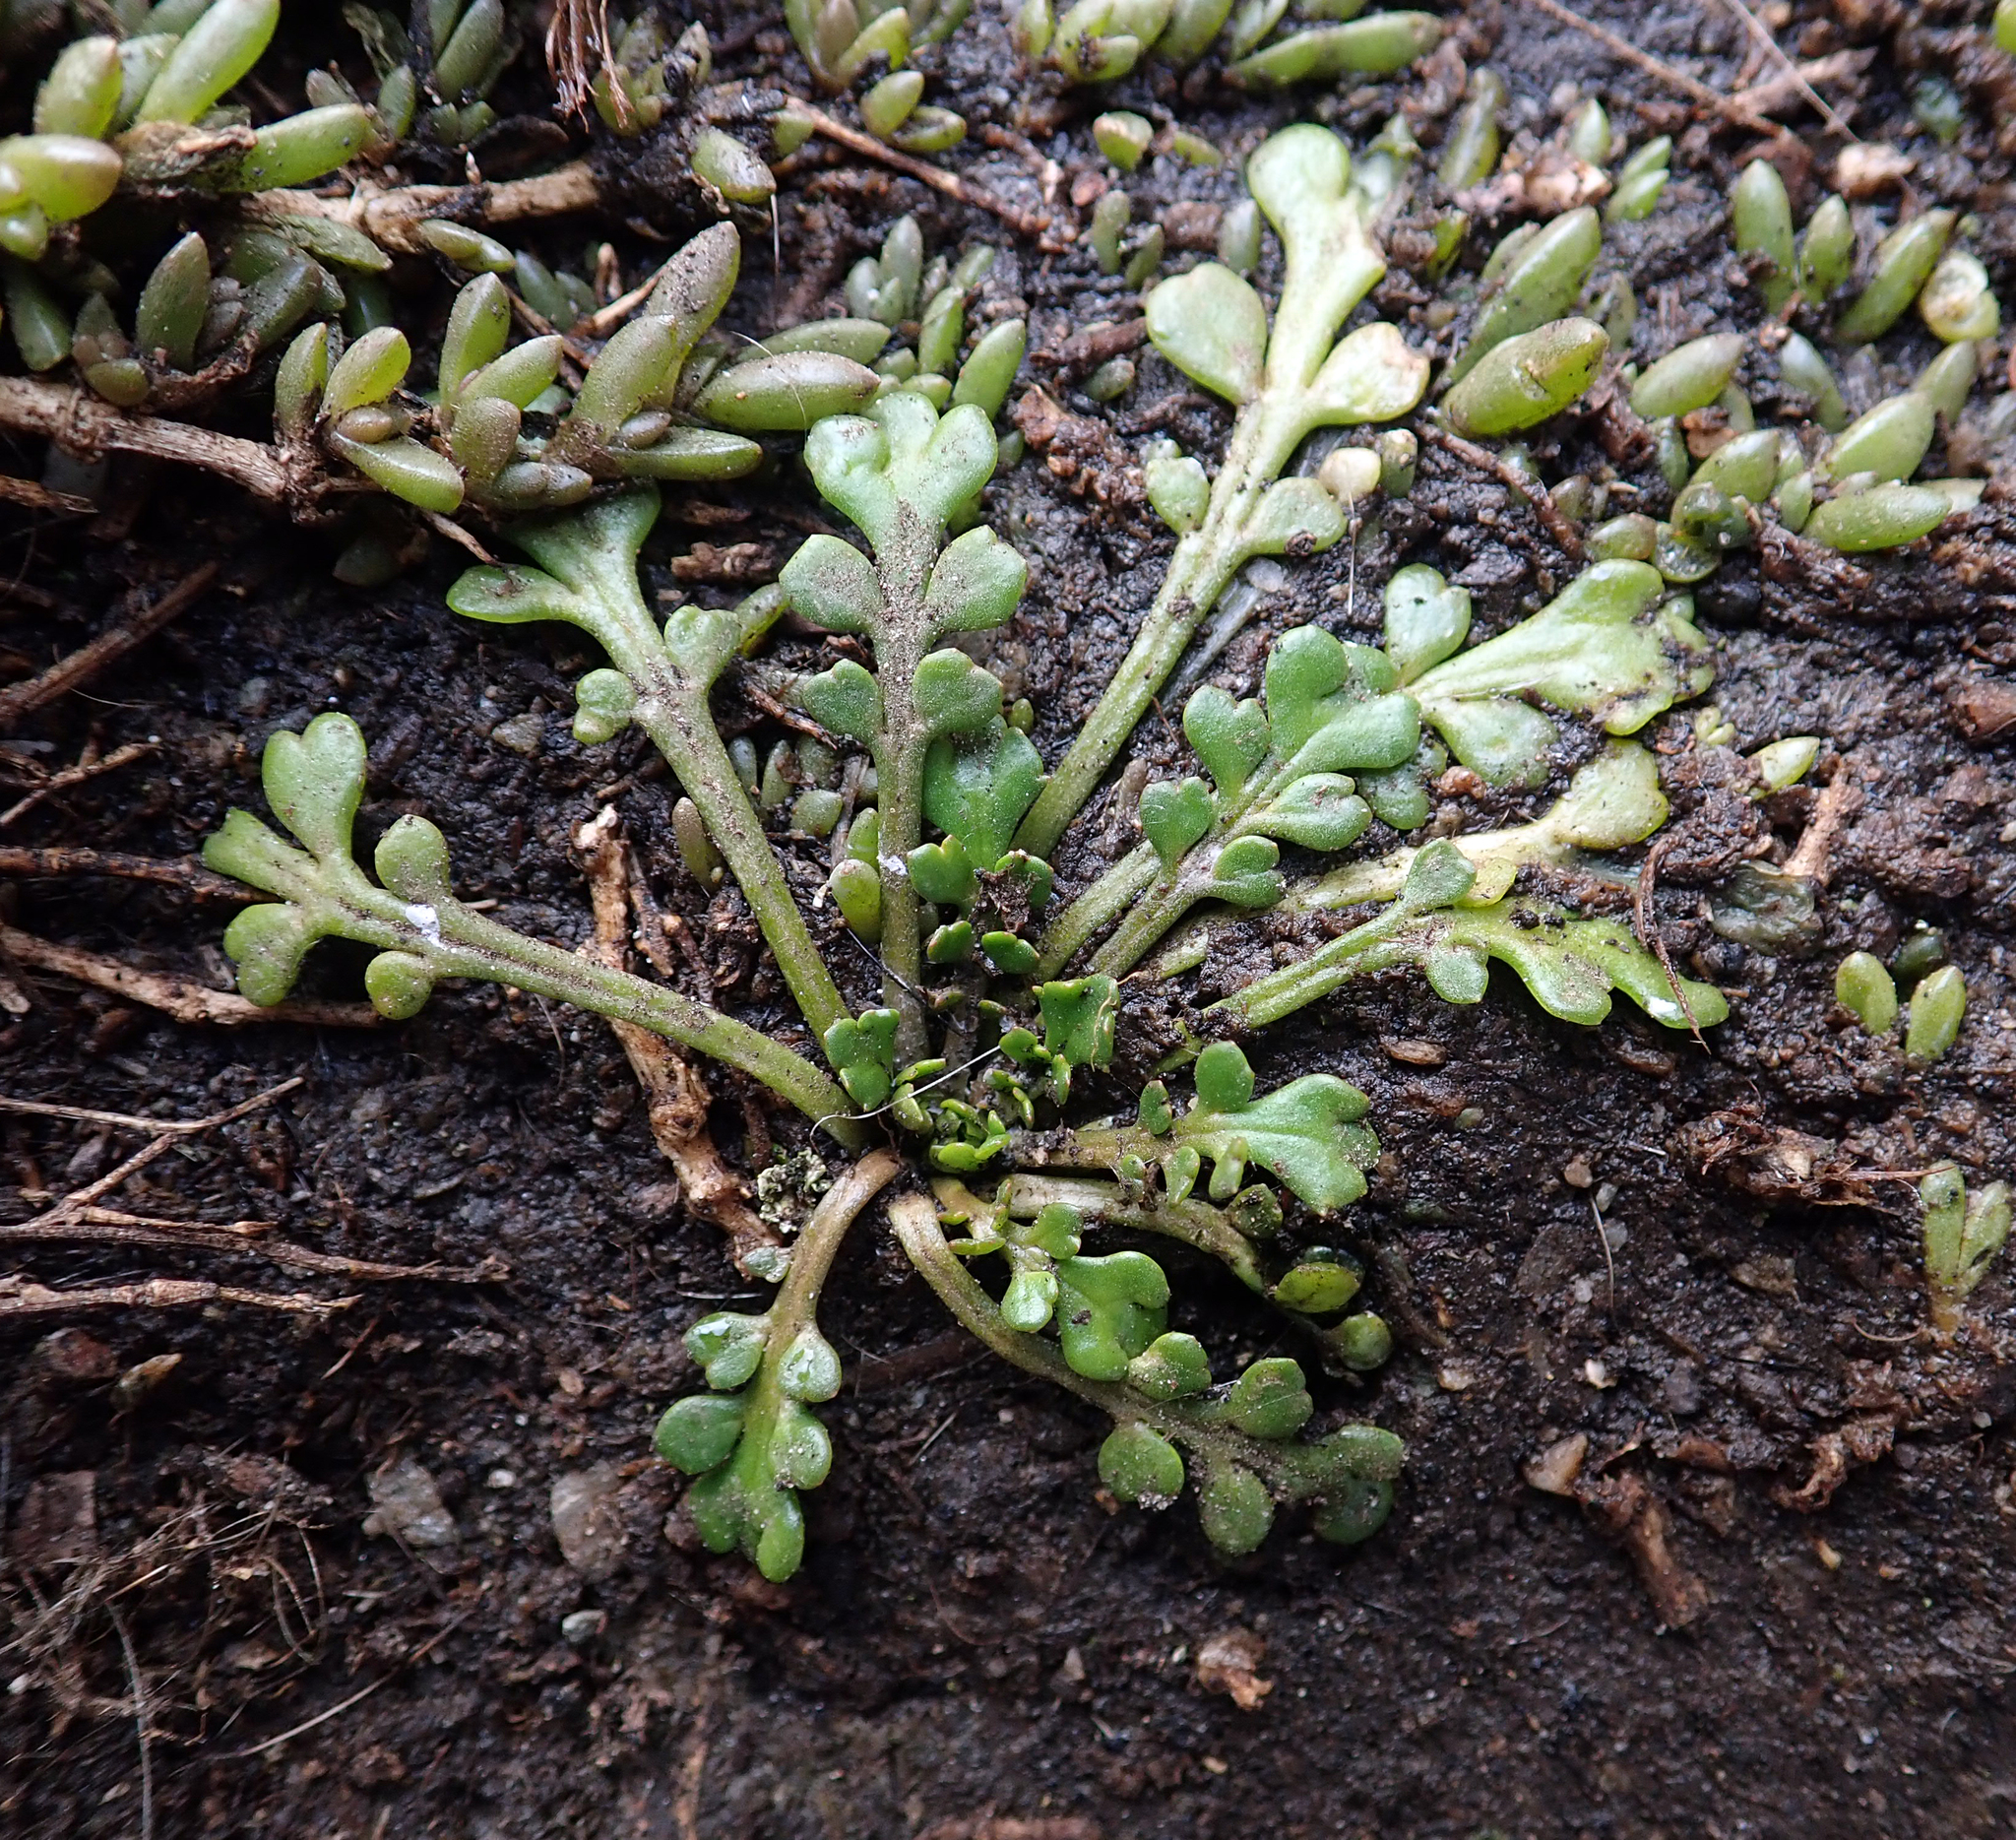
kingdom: Plantae
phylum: Tracheophyta
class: Magnoliopsida
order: Brassicales
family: Brassicaceae
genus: Lepidium
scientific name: Lepidium flexicaule
